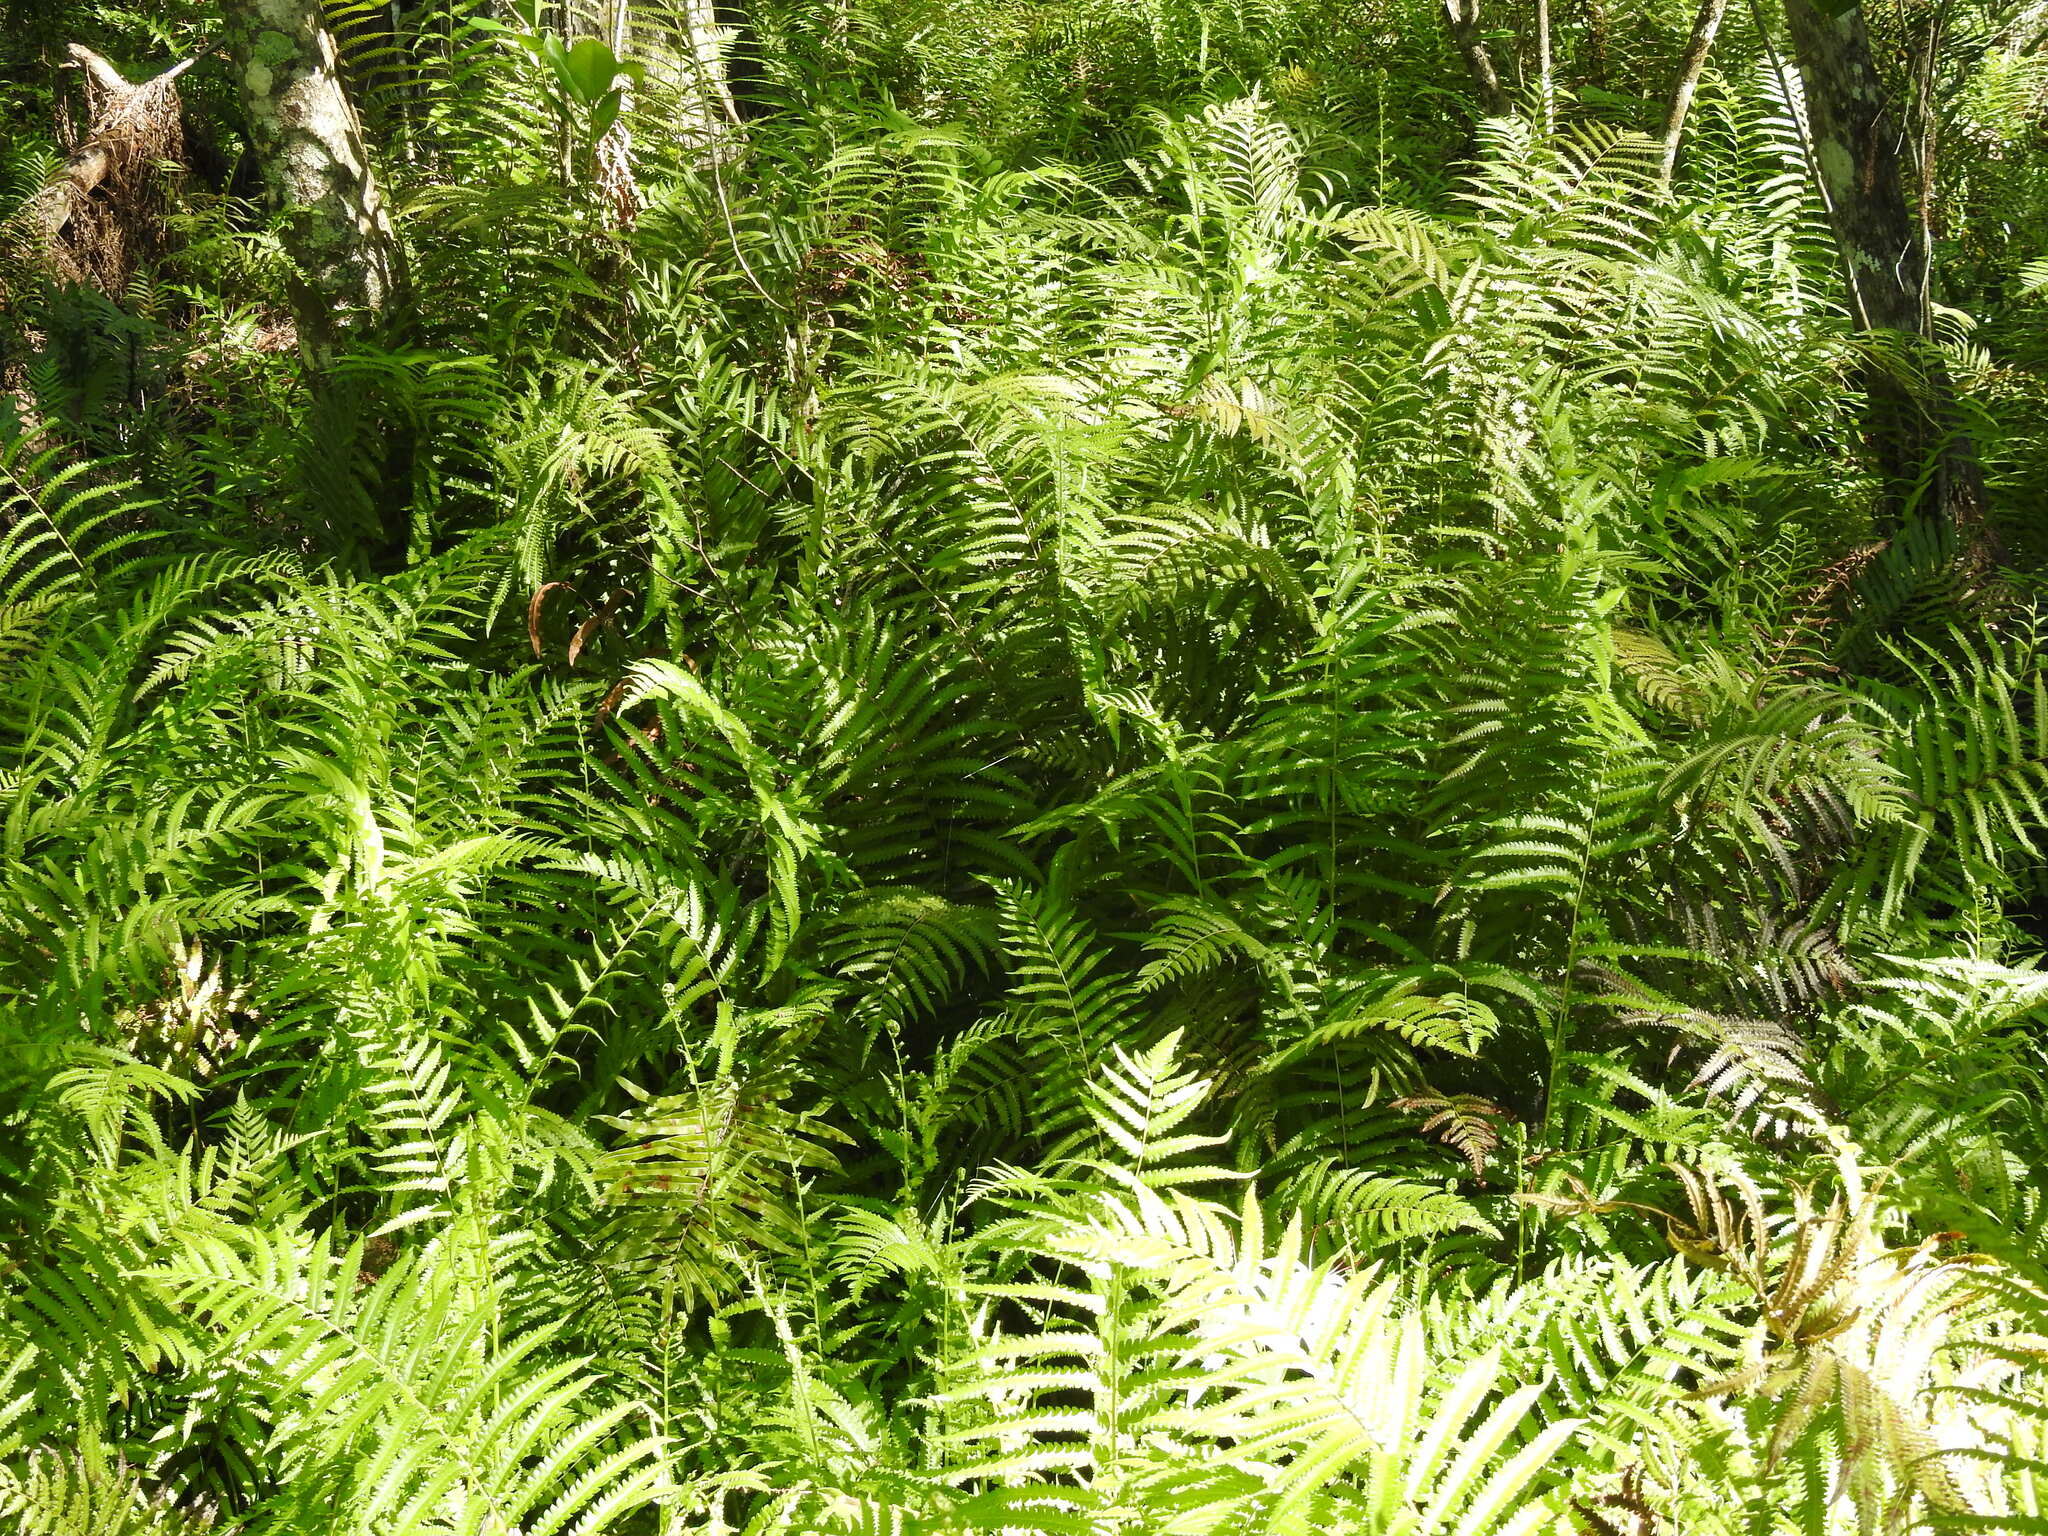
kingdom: Plantae
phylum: Tracheophyta
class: Polypodiopsida
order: Polypodiales
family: Thelypteridaceae
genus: Cyclosorus
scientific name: Cyclosorus interruptus
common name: Neke fern
